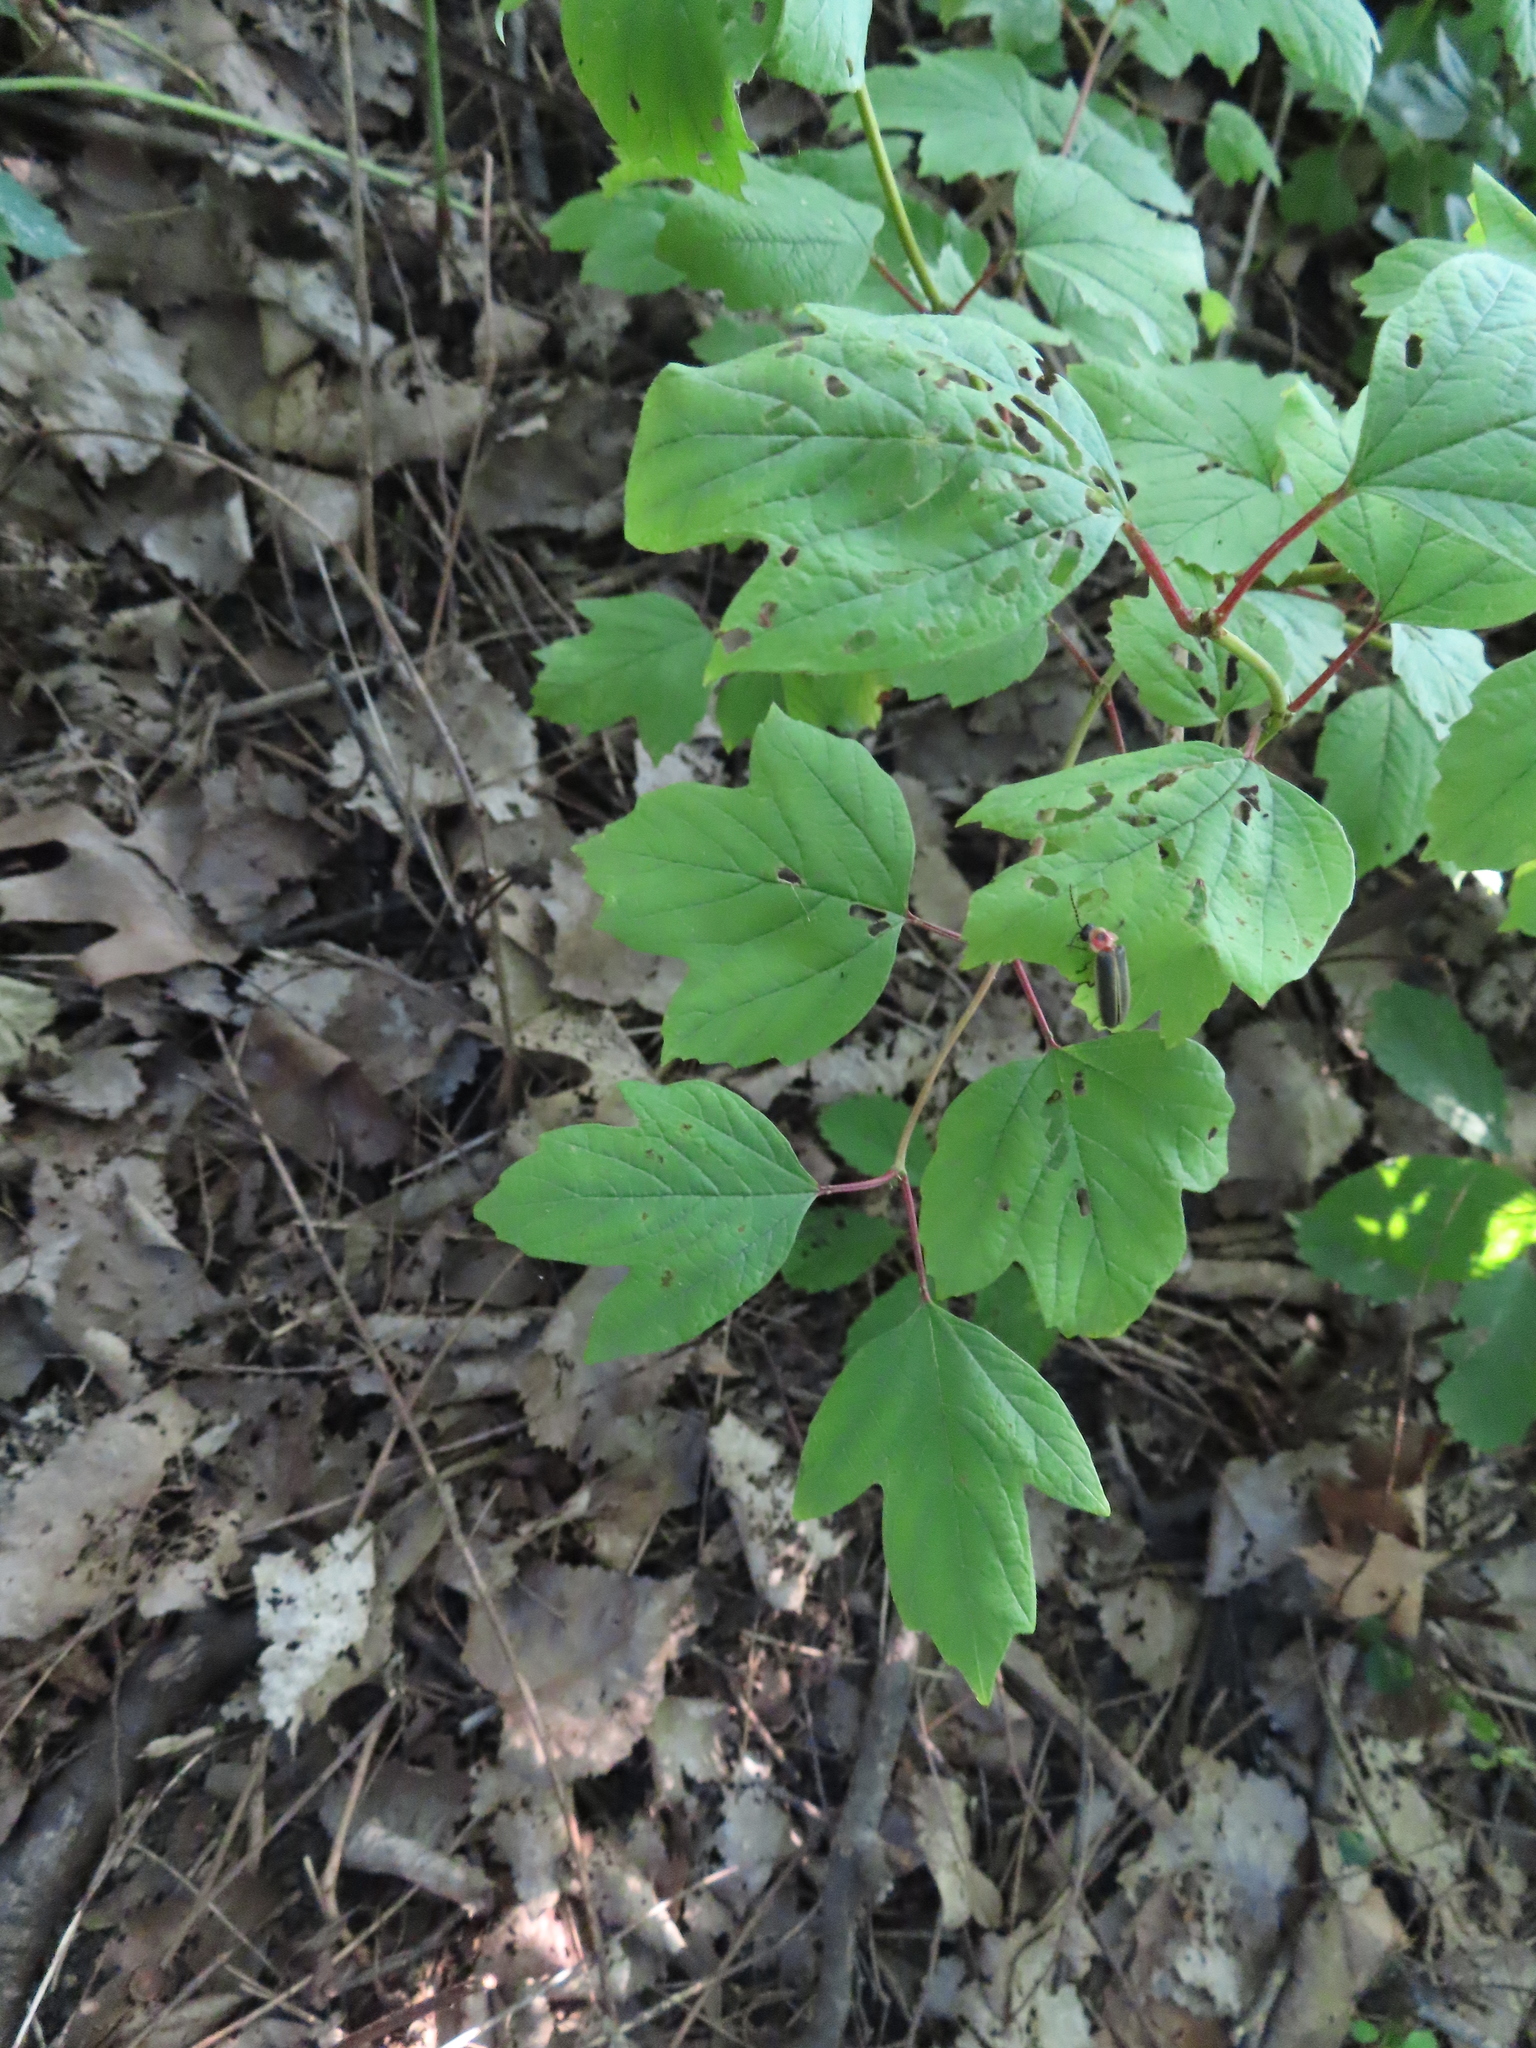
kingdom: Plantae
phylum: Tracheophyta
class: Magnoliopsida
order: Dipsacales
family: Viburnaceae
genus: Viburnum
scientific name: Viburnum opulus
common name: Guelder-rose
